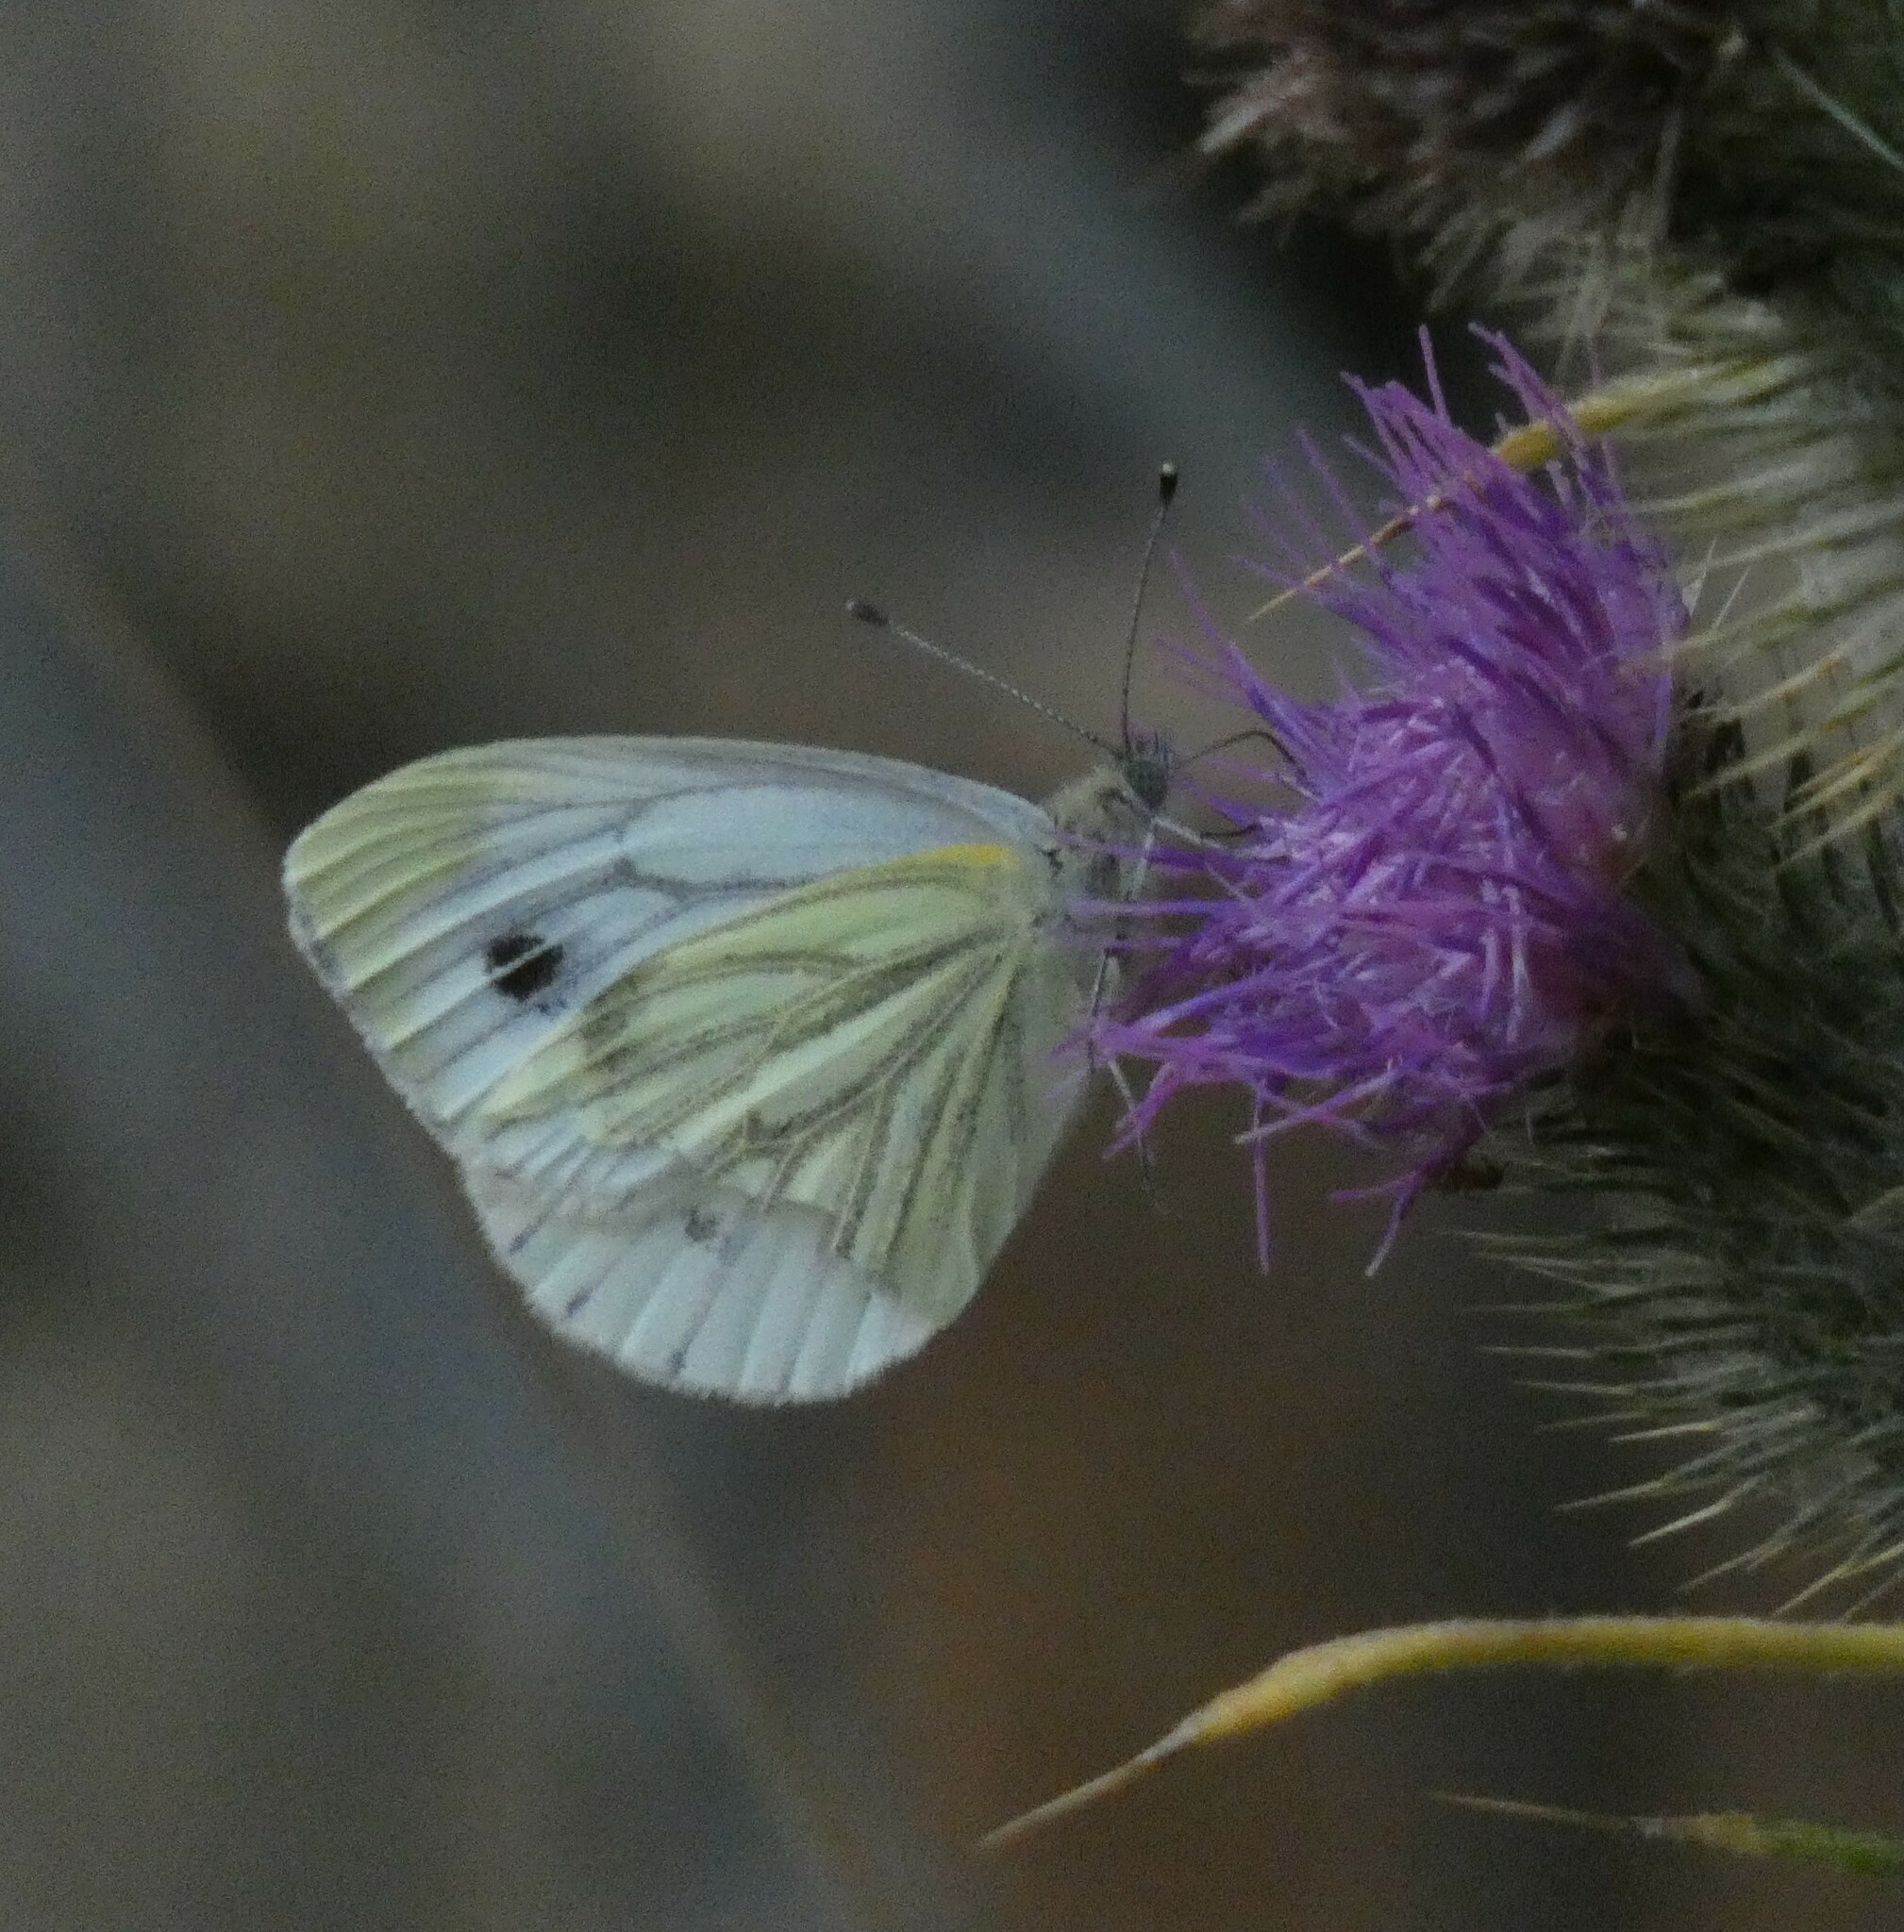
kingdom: Animalia
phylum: Arthropoda
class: Insecta
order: Lepidoptera
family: Pieridae
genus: Pieris
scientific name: Pieris napi
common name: Green-veined white
